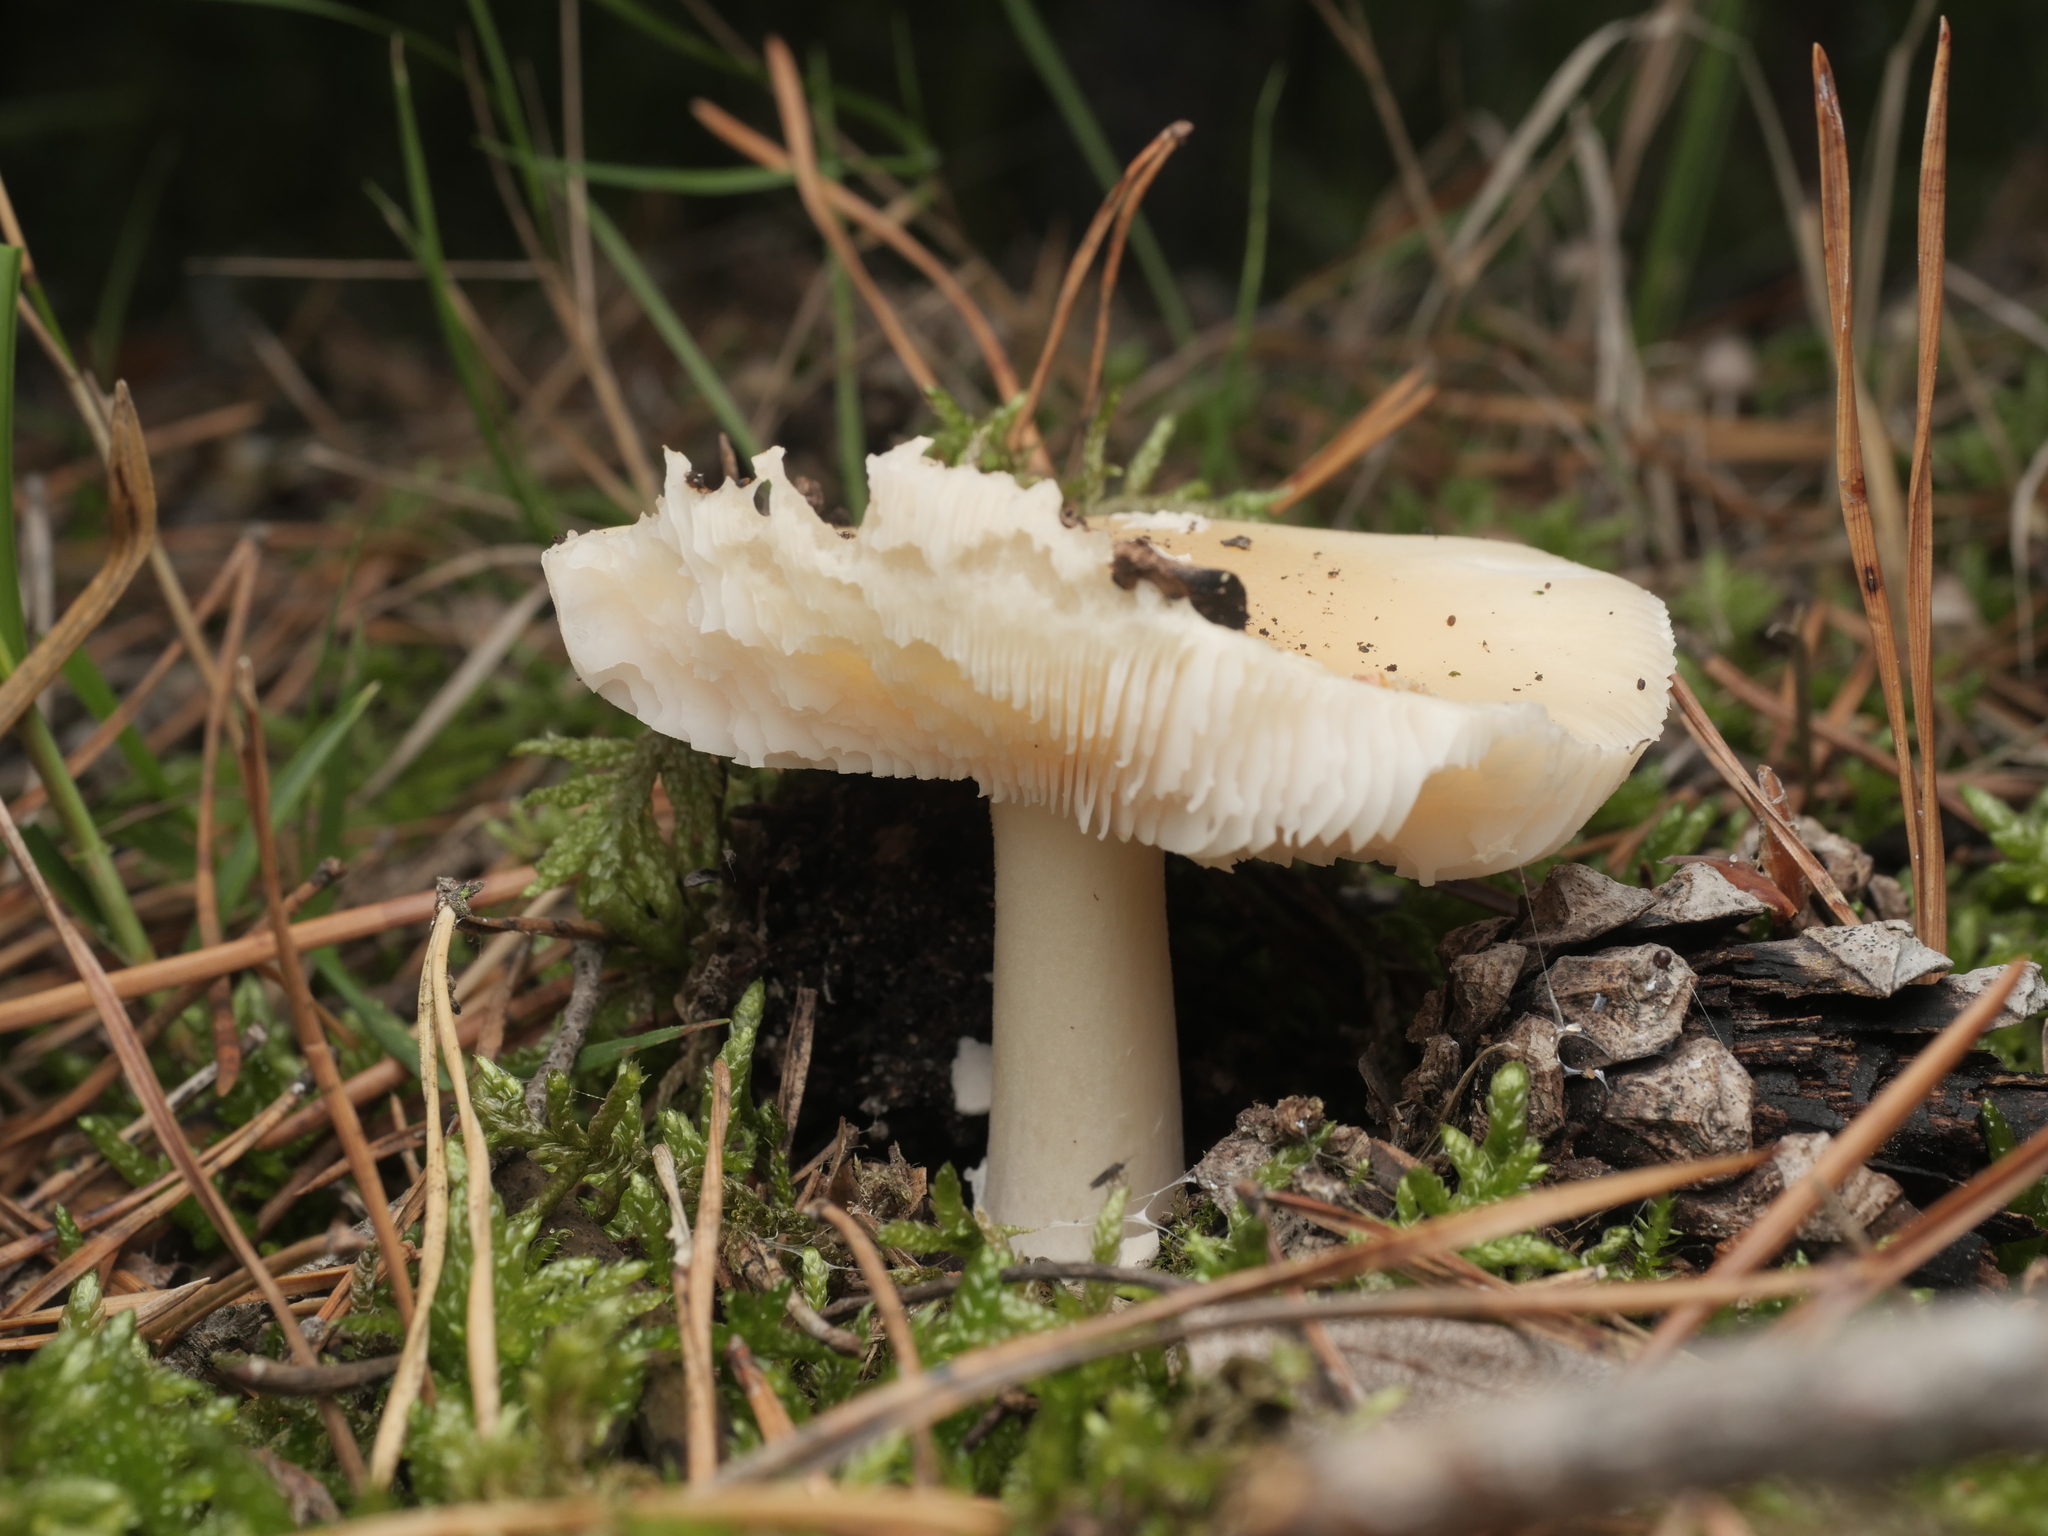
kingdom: Fungi
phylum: Basidiomycota
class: Agaricomycetes
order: Agaricales
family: Amanitaceae
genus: Amanita
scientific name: Amanita gemmata
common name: Jewelled amanita
